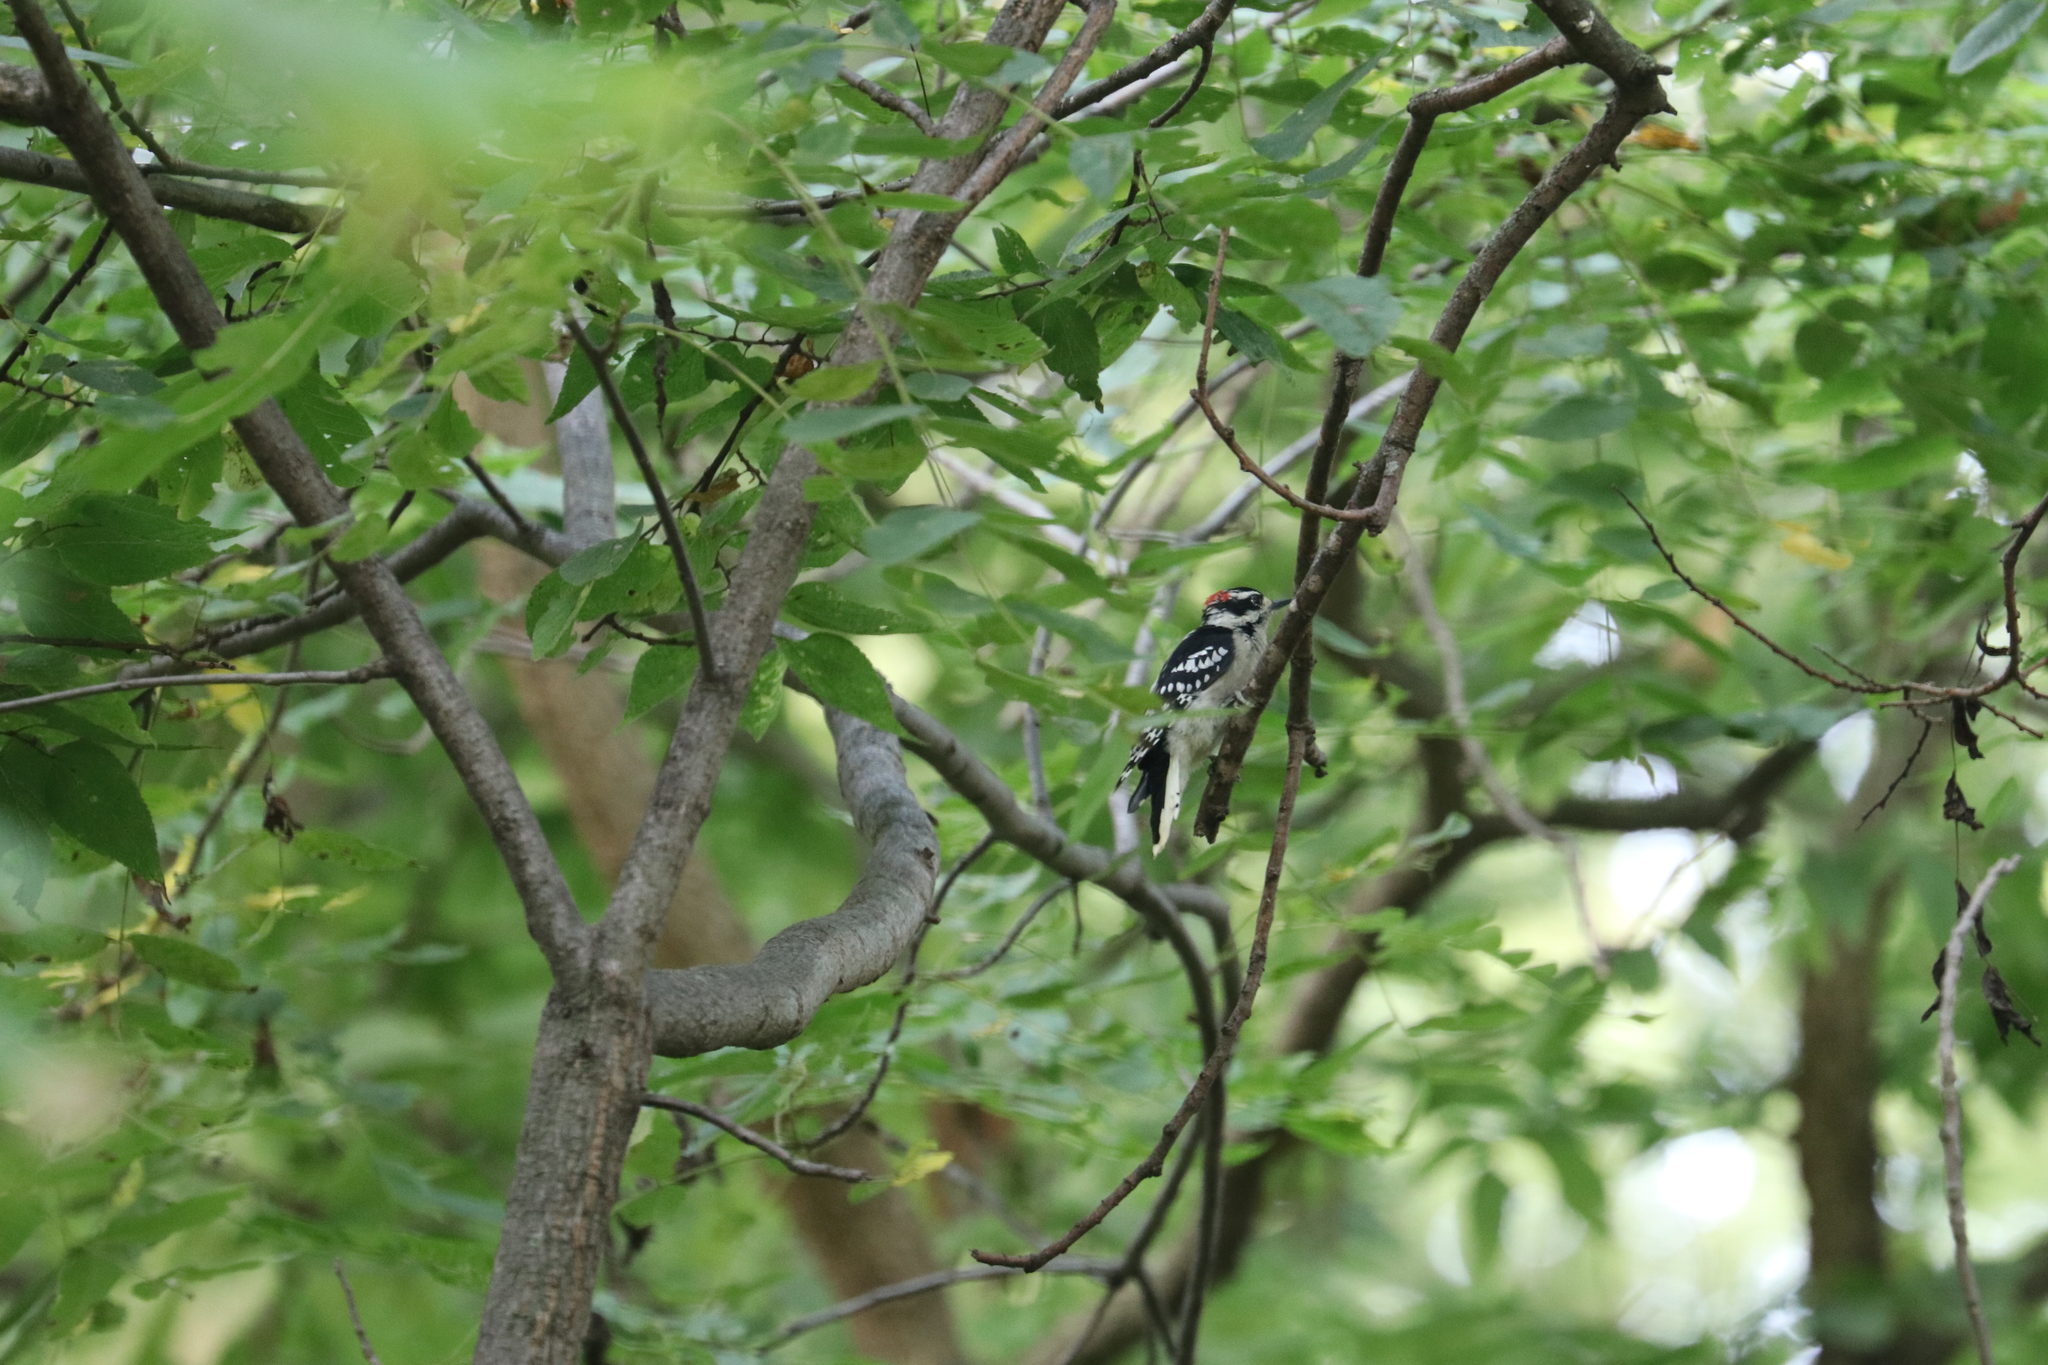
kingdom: Animalia
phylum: Chordata
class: Aves
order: Piciformes
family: Picidae
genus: Dryobates
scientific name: Dryobates pubescens
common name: Downy woodpecker
